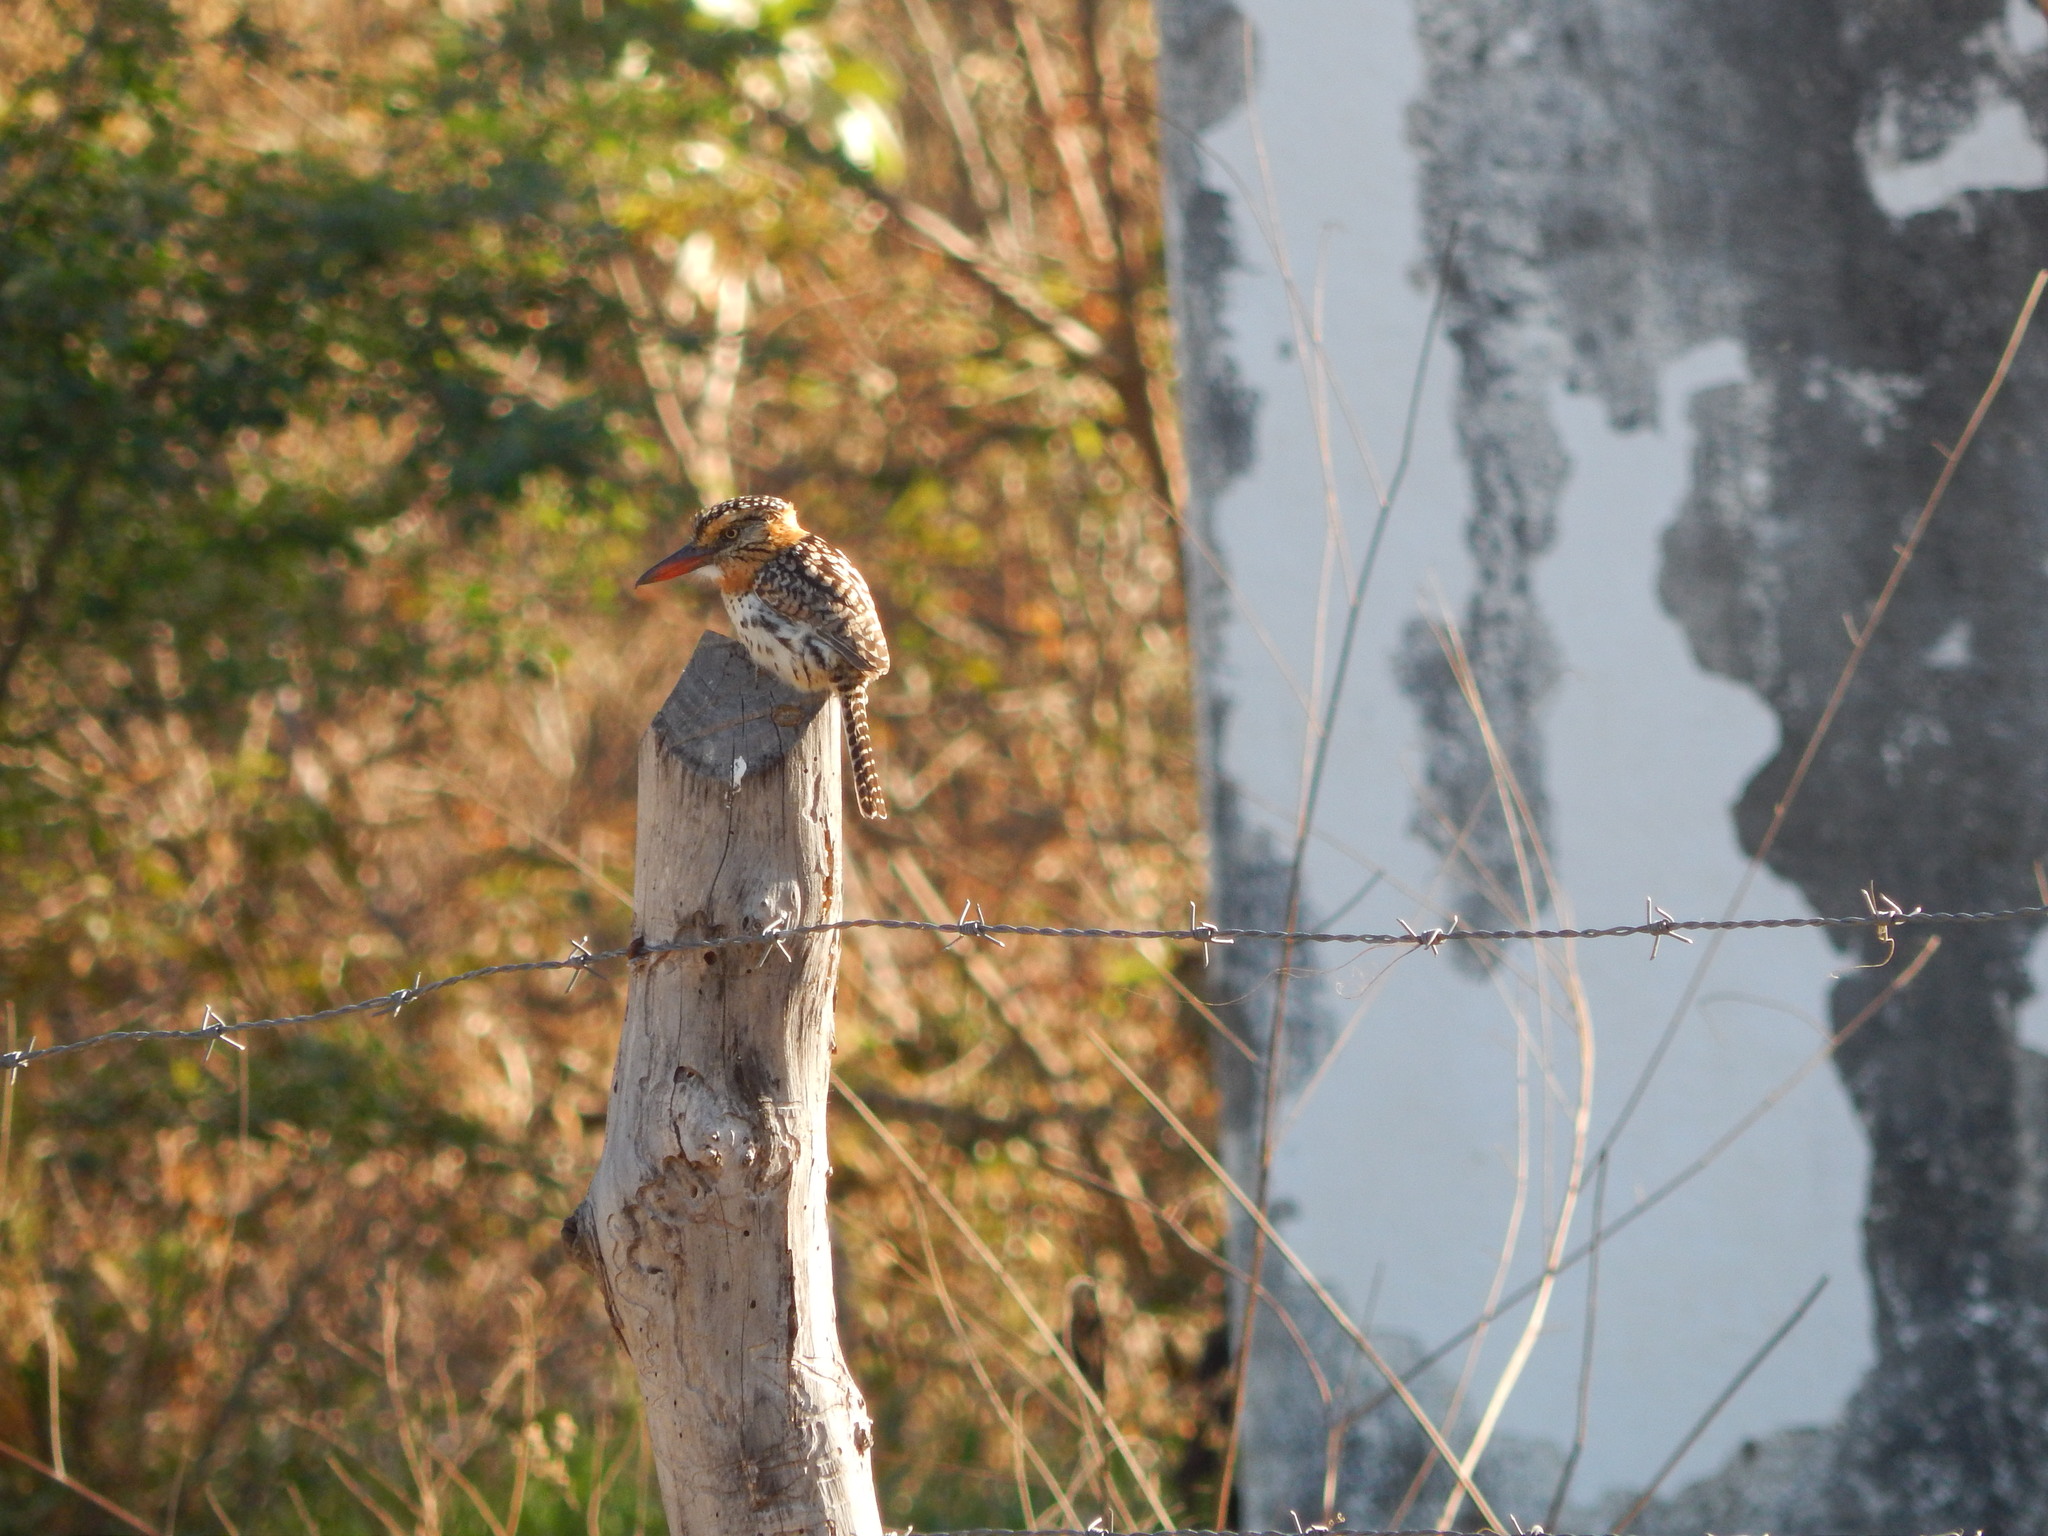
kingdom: Animalia
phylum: Chordata
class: Aves
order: Piciformes
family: Bucconidae
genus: Nystalus
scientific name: Nystalus maculatus
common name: Caatinga puffbird
